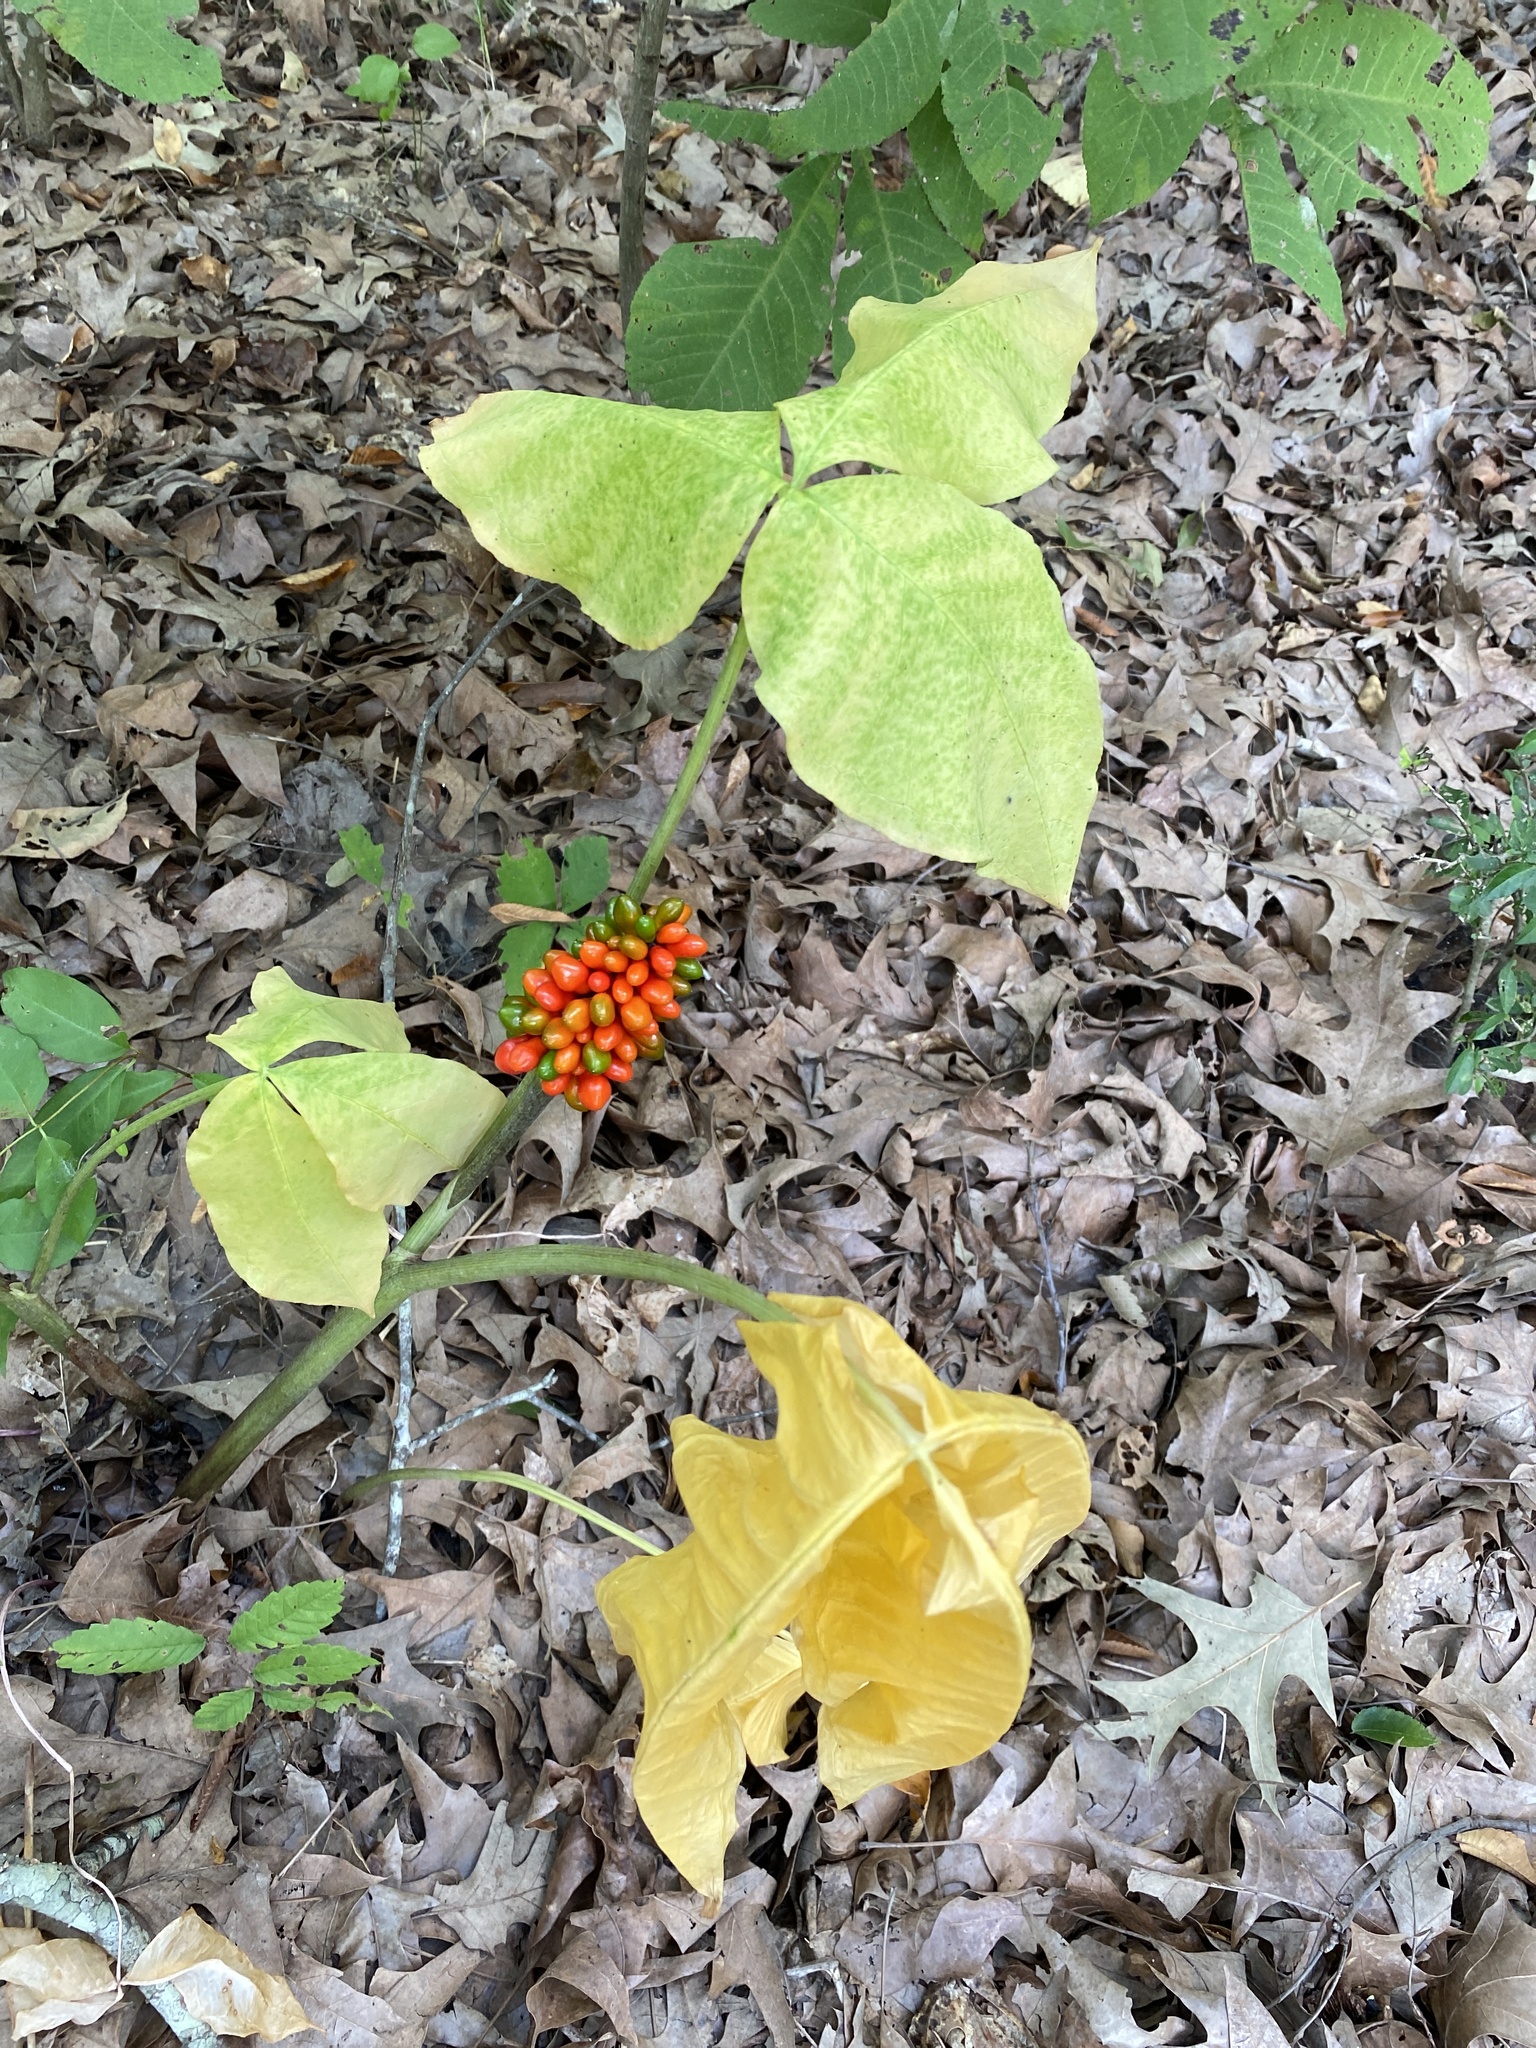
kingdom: Plantae
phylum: Tracheophyta
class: Liliopsida
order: Alismatales
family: Araceae
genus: Arisaema
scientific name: Arisaema triphyllum
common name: Jack-in-the-pulpit
